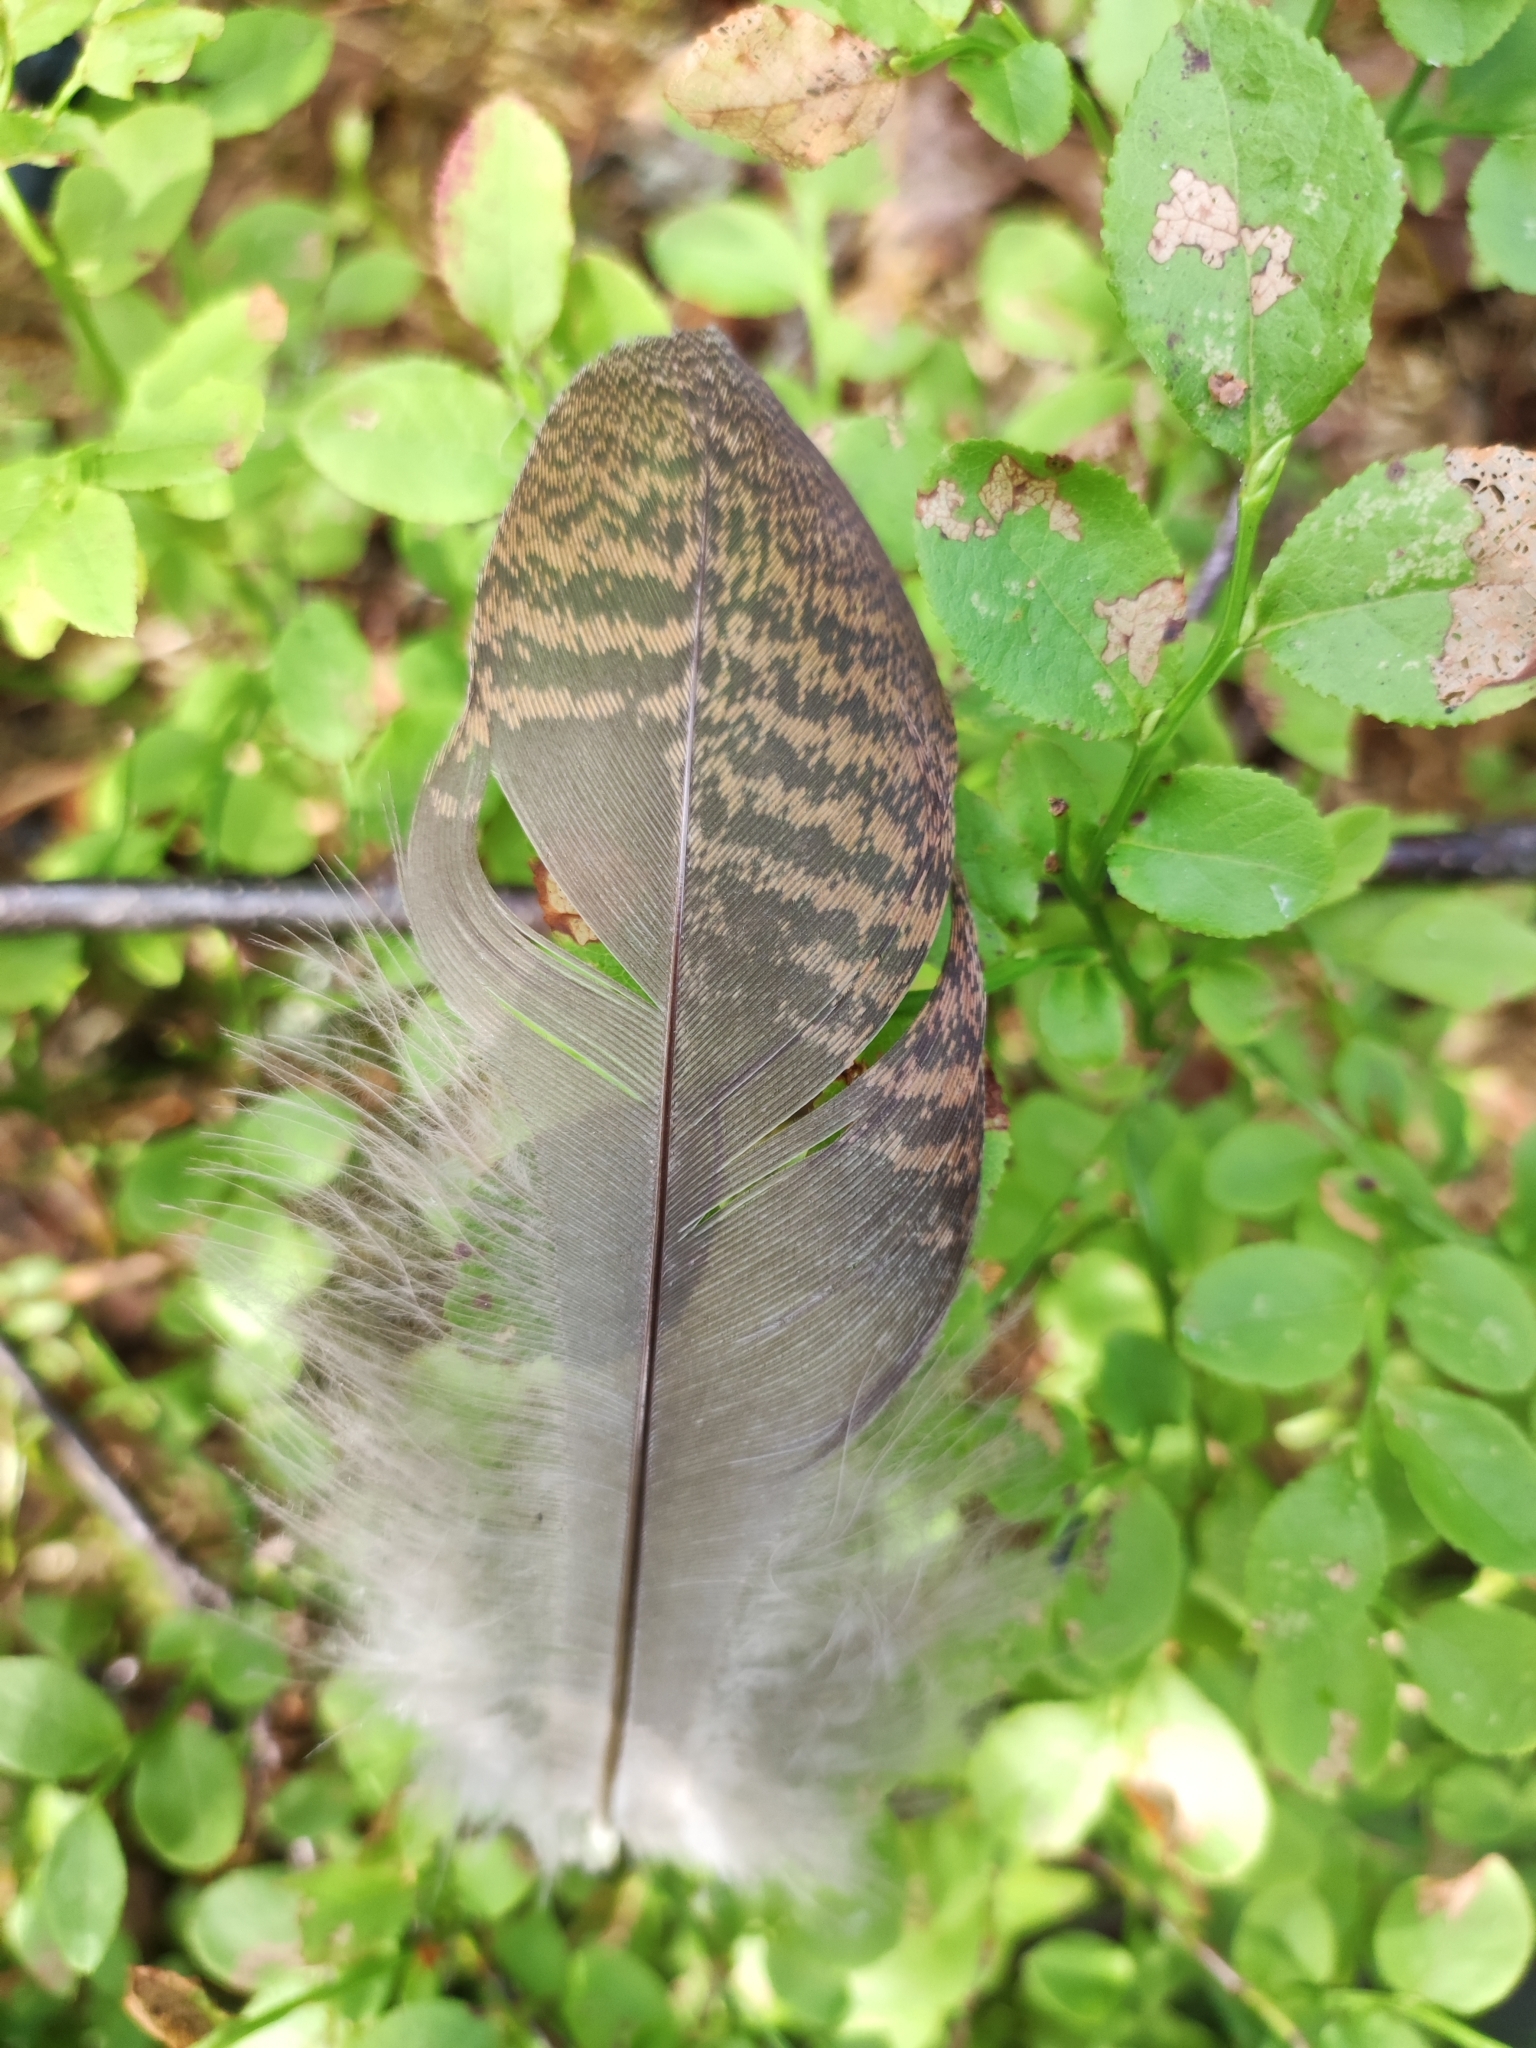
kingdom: Animalia
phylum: Chordata
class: Aves
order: Charadriiformes
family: Scolopacidae
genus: Scolopax
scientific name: Scolopax rusticola
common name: Eurasian woodcock
